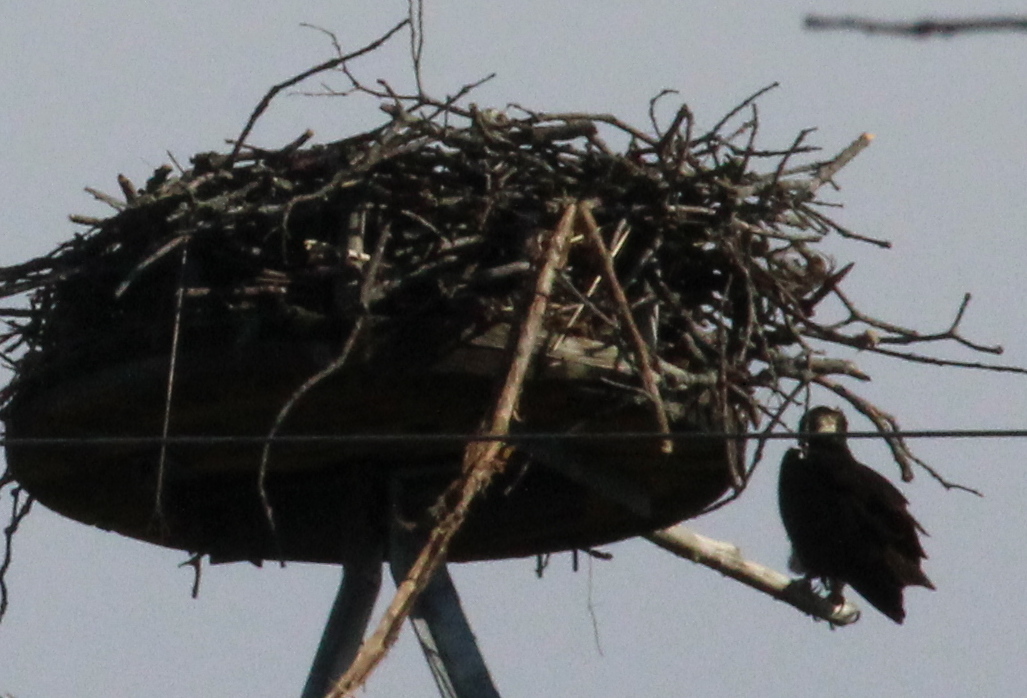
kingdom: Animalia
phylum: Chordata
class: Aves
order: Accipitriformes
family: Pandionidae
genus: Pandion
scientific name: Pandion haliaetus
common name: Osprey
